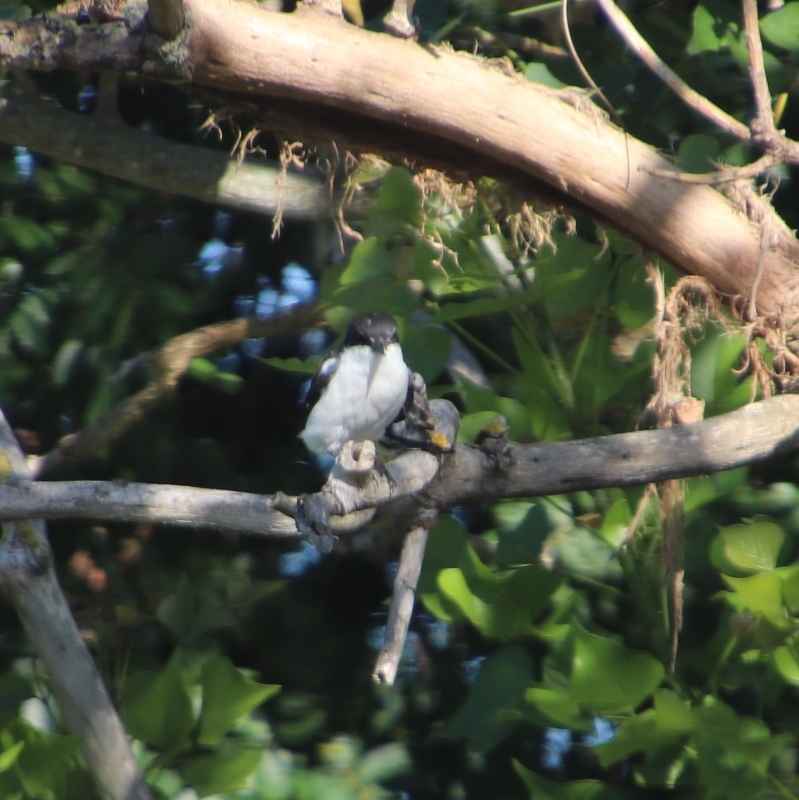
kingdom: Animalia
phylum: Chordata
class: Aves
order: Passeriformes
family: Laniidae
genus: Lanius
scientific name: Lanius collaris
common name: Southern fiscal
